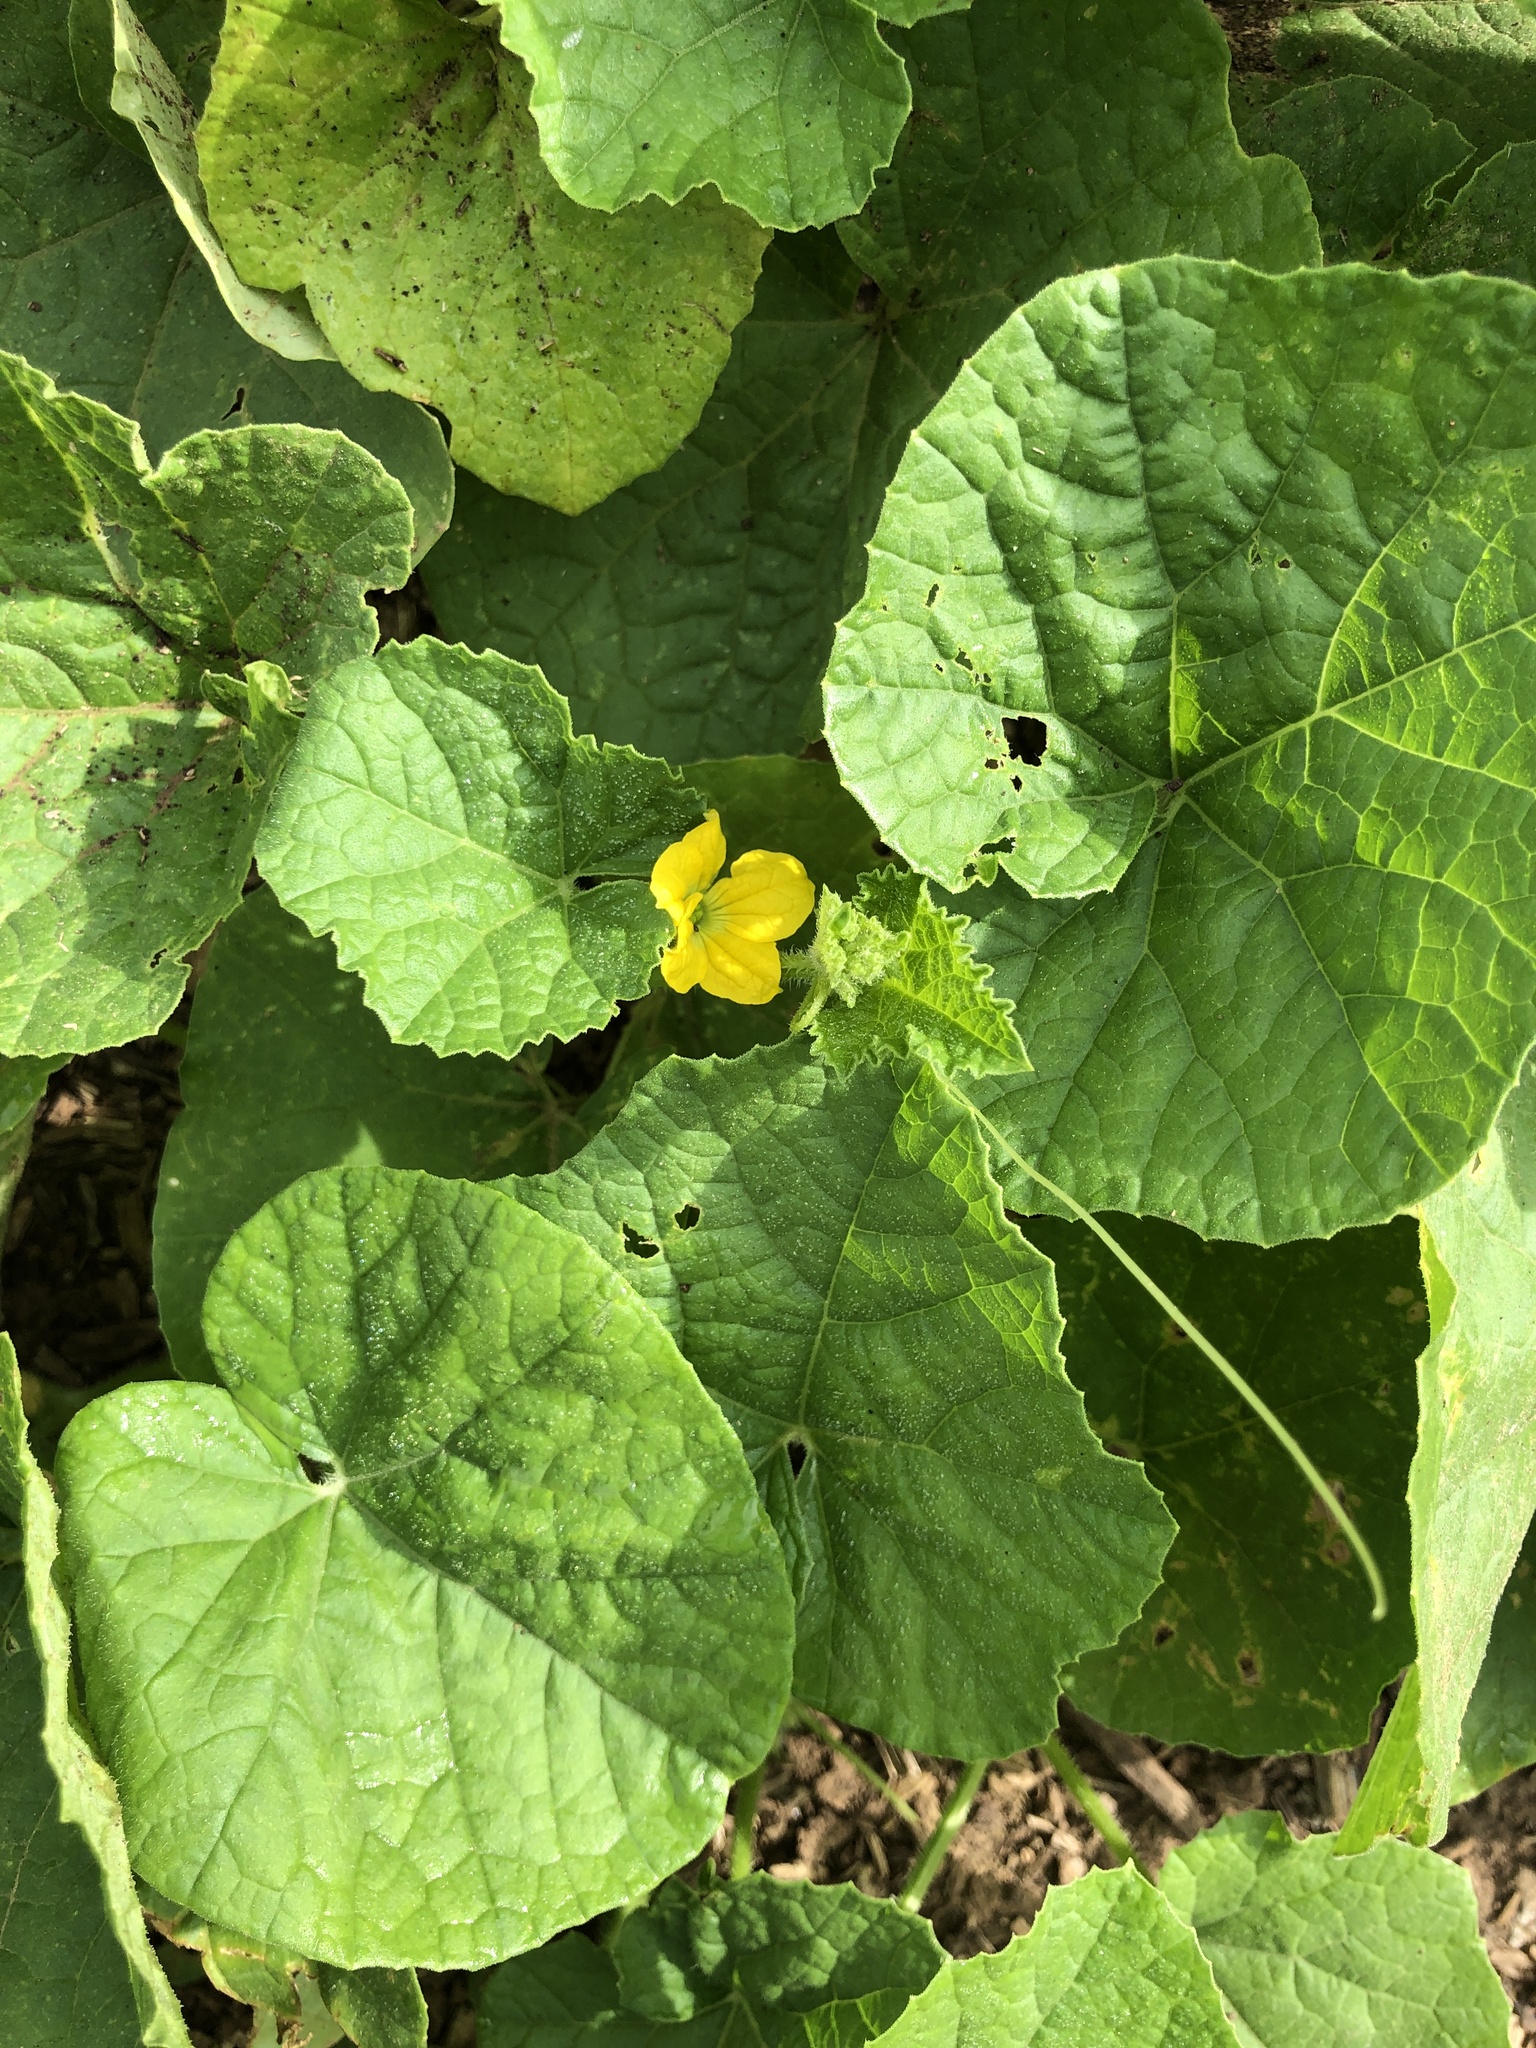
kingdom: Plantae
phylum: Tracheophyta
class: Magnoliopsida
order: Cucurbitales
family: Cucurbitaceae
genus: Cucumis
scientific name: Cucumis melo
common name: Melon
